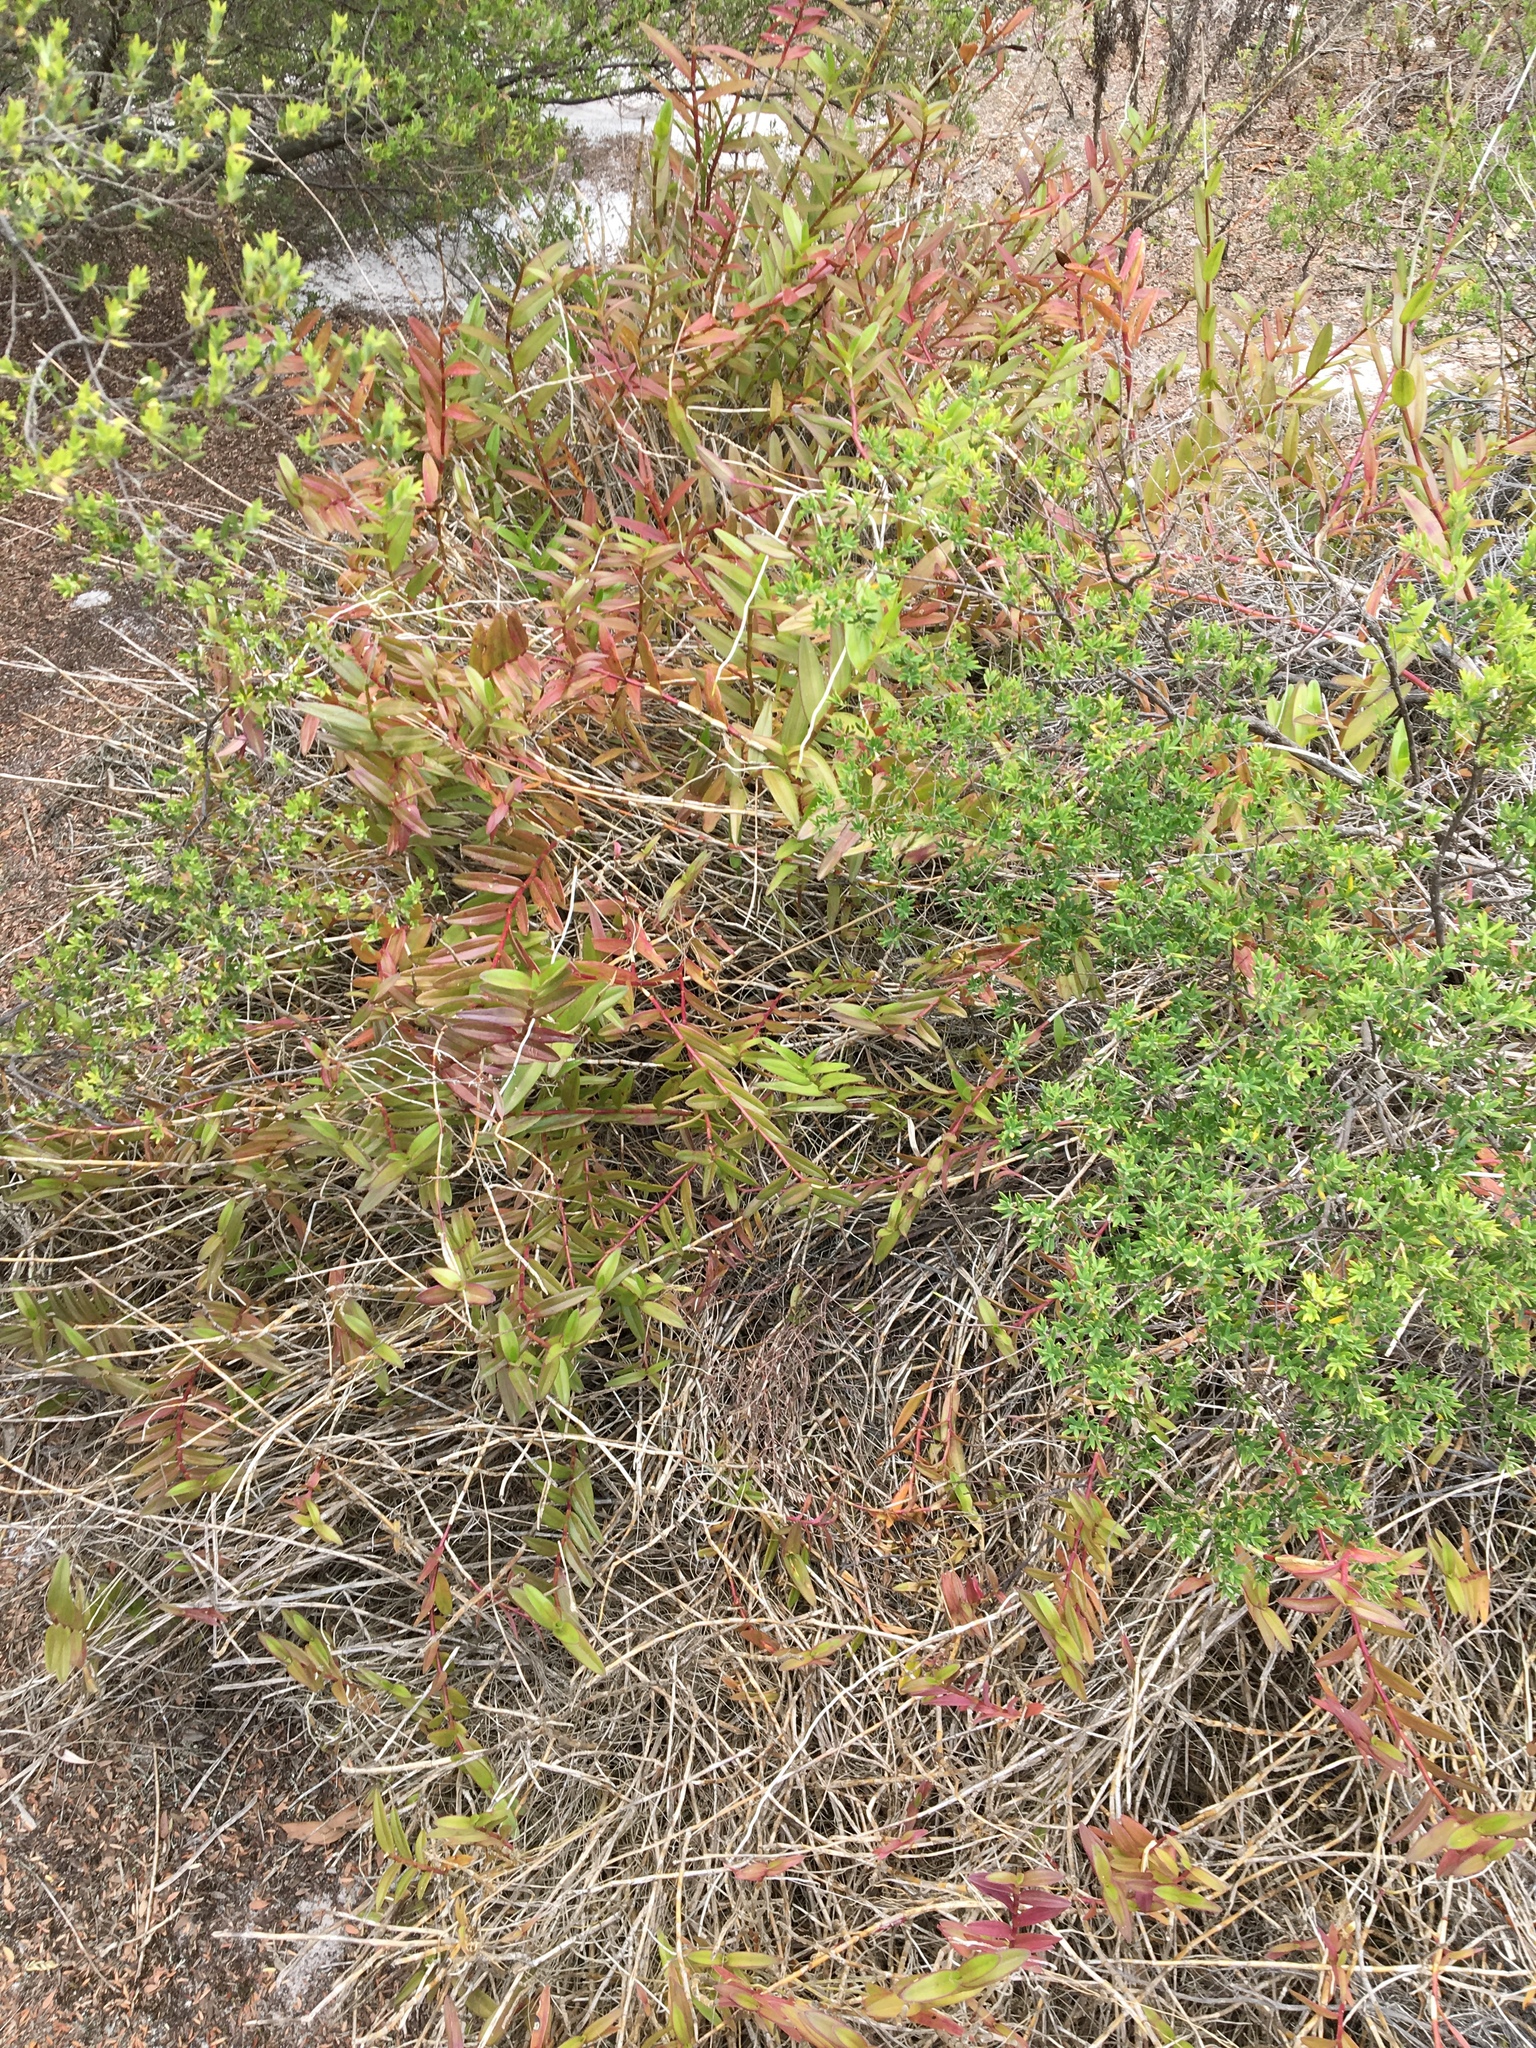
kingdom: Plantae
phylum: Tracheophyta
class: Liliopsida
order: Asparagales
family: Orchidaceae
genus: Epidendrum
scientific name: Epidendrum
